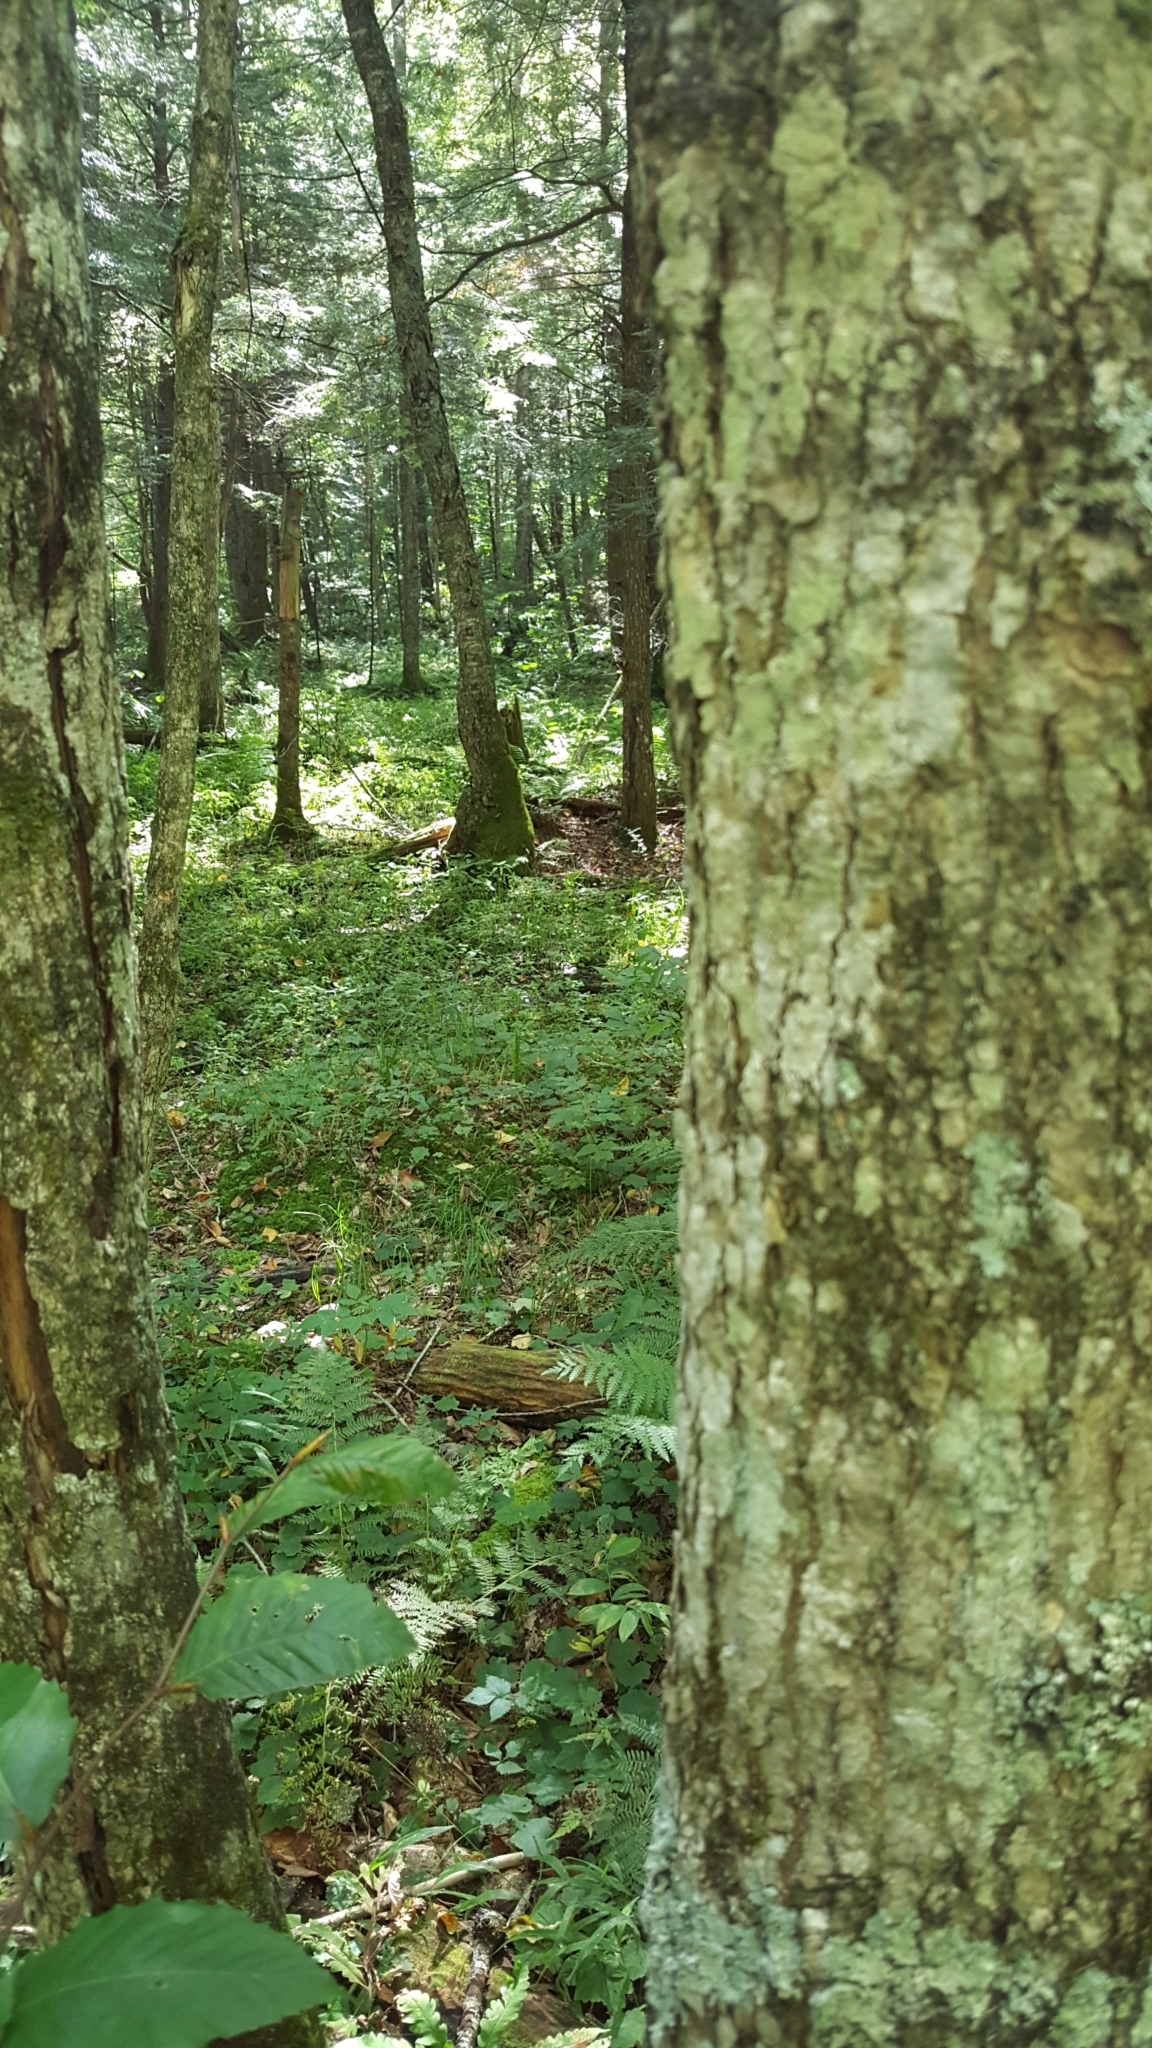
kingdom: Plantae
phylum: Tracheophyta
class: Magnoliopsida
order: Lamiales
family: Oleaceae
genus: Fraxinus
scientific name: Fraxinus nigra
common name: Black ash
